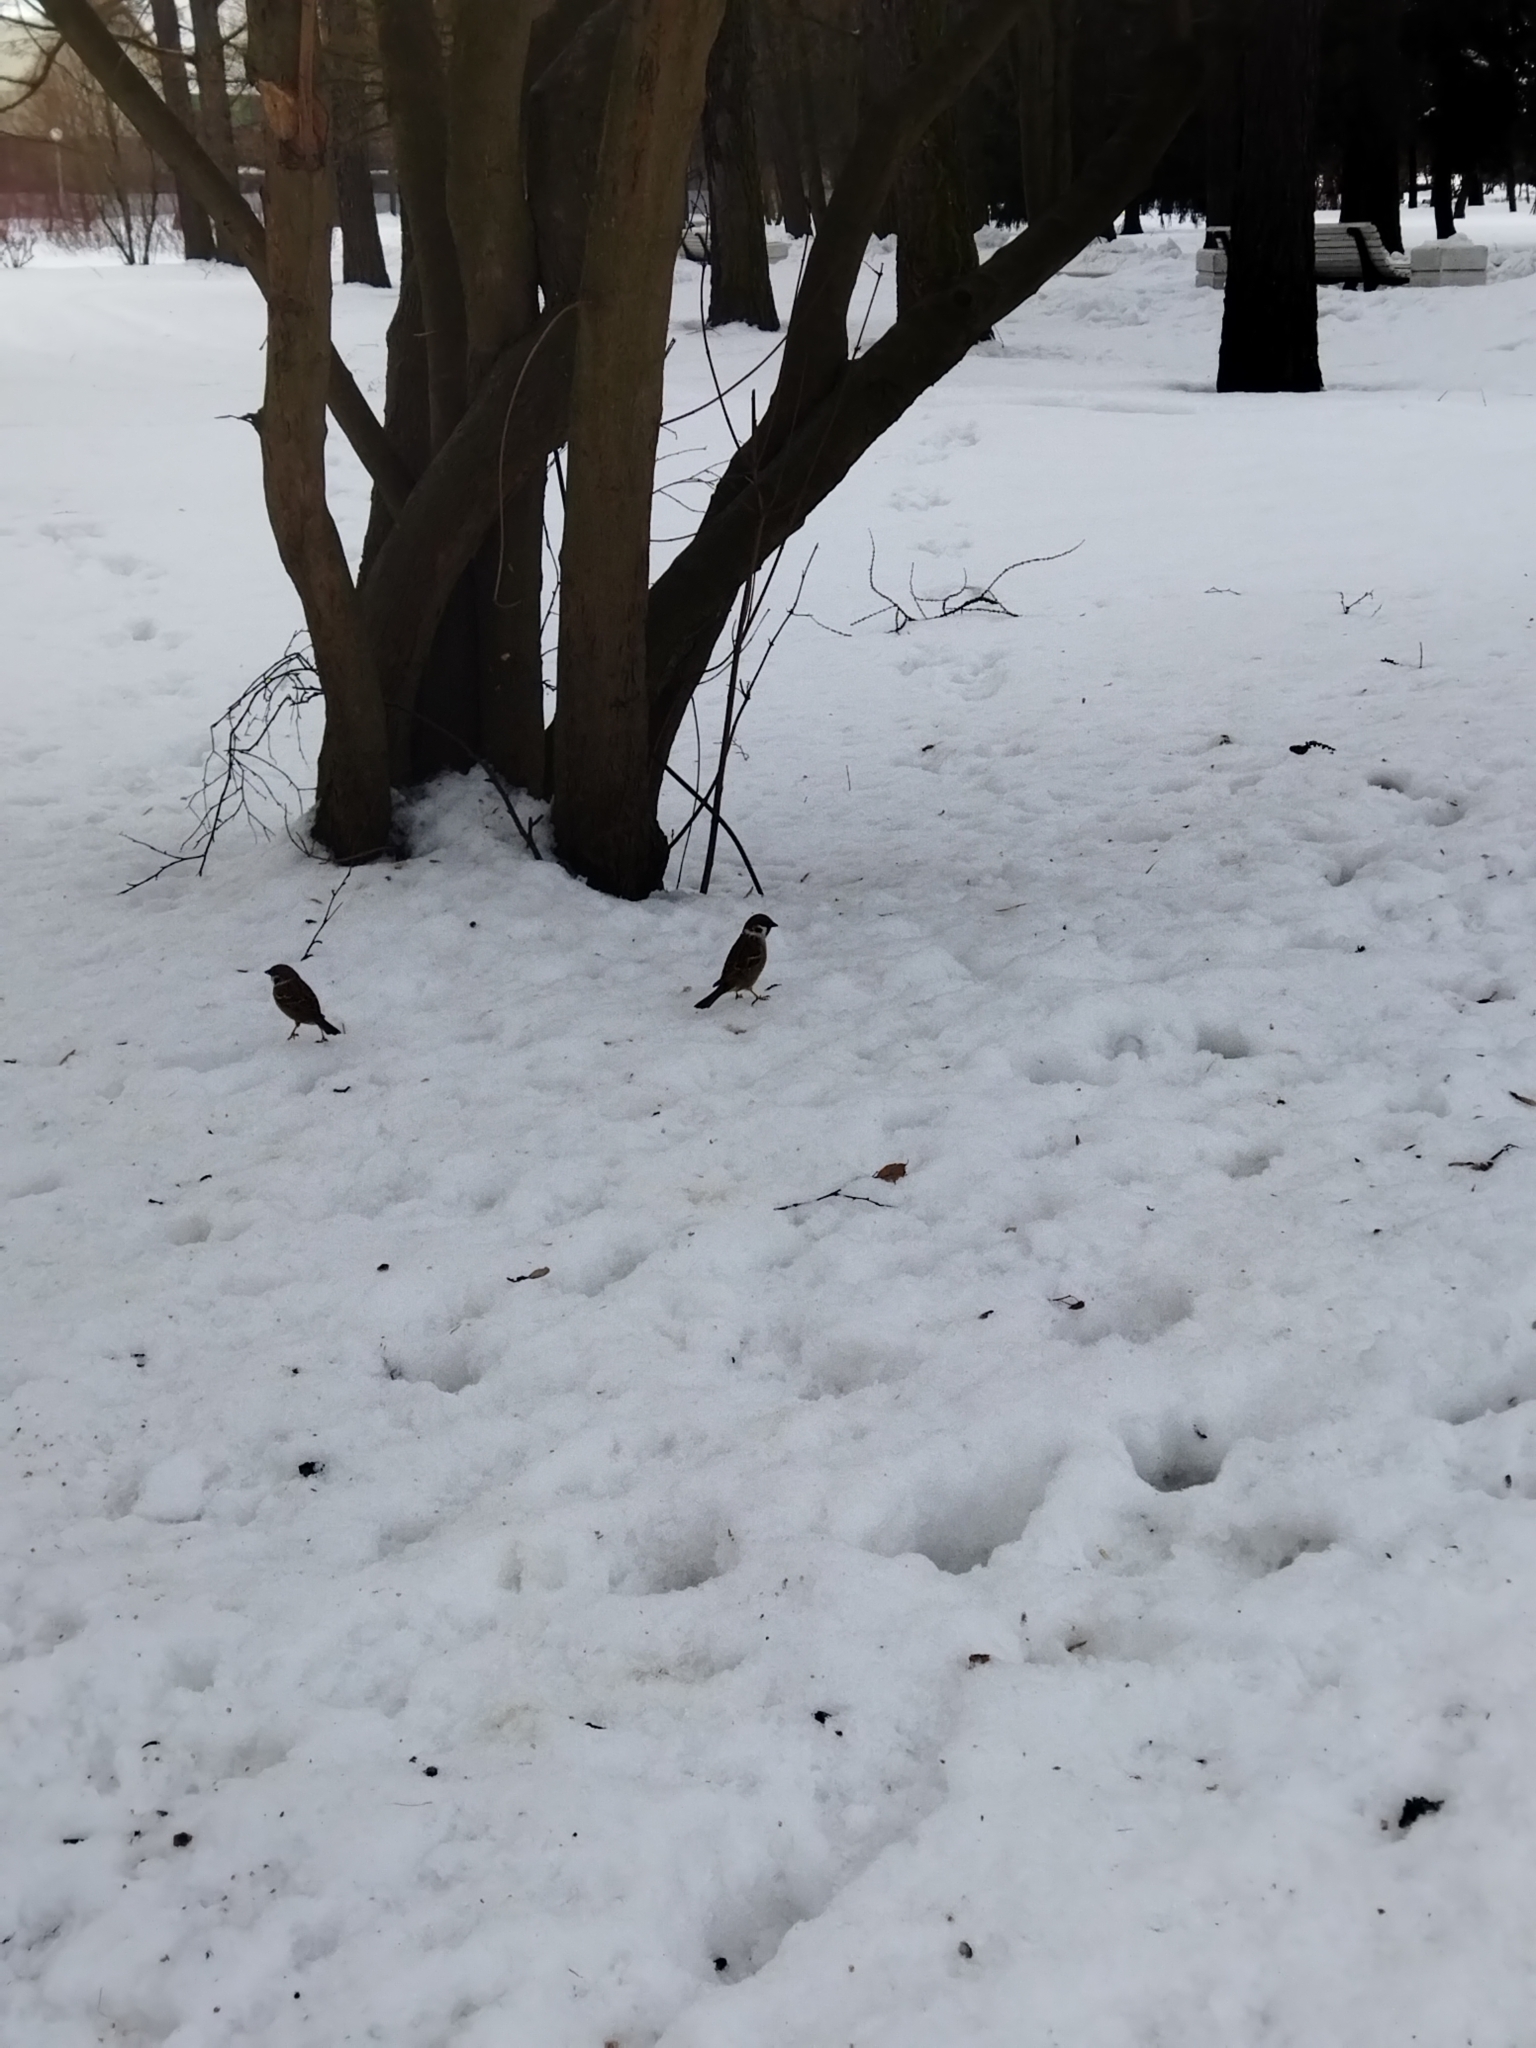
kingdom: Animalia
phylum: Chordata
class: Aves
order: Passeriformes
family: Passeridae
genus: Passer
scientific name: Passer montanus
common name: Eurasian tree sparrow
